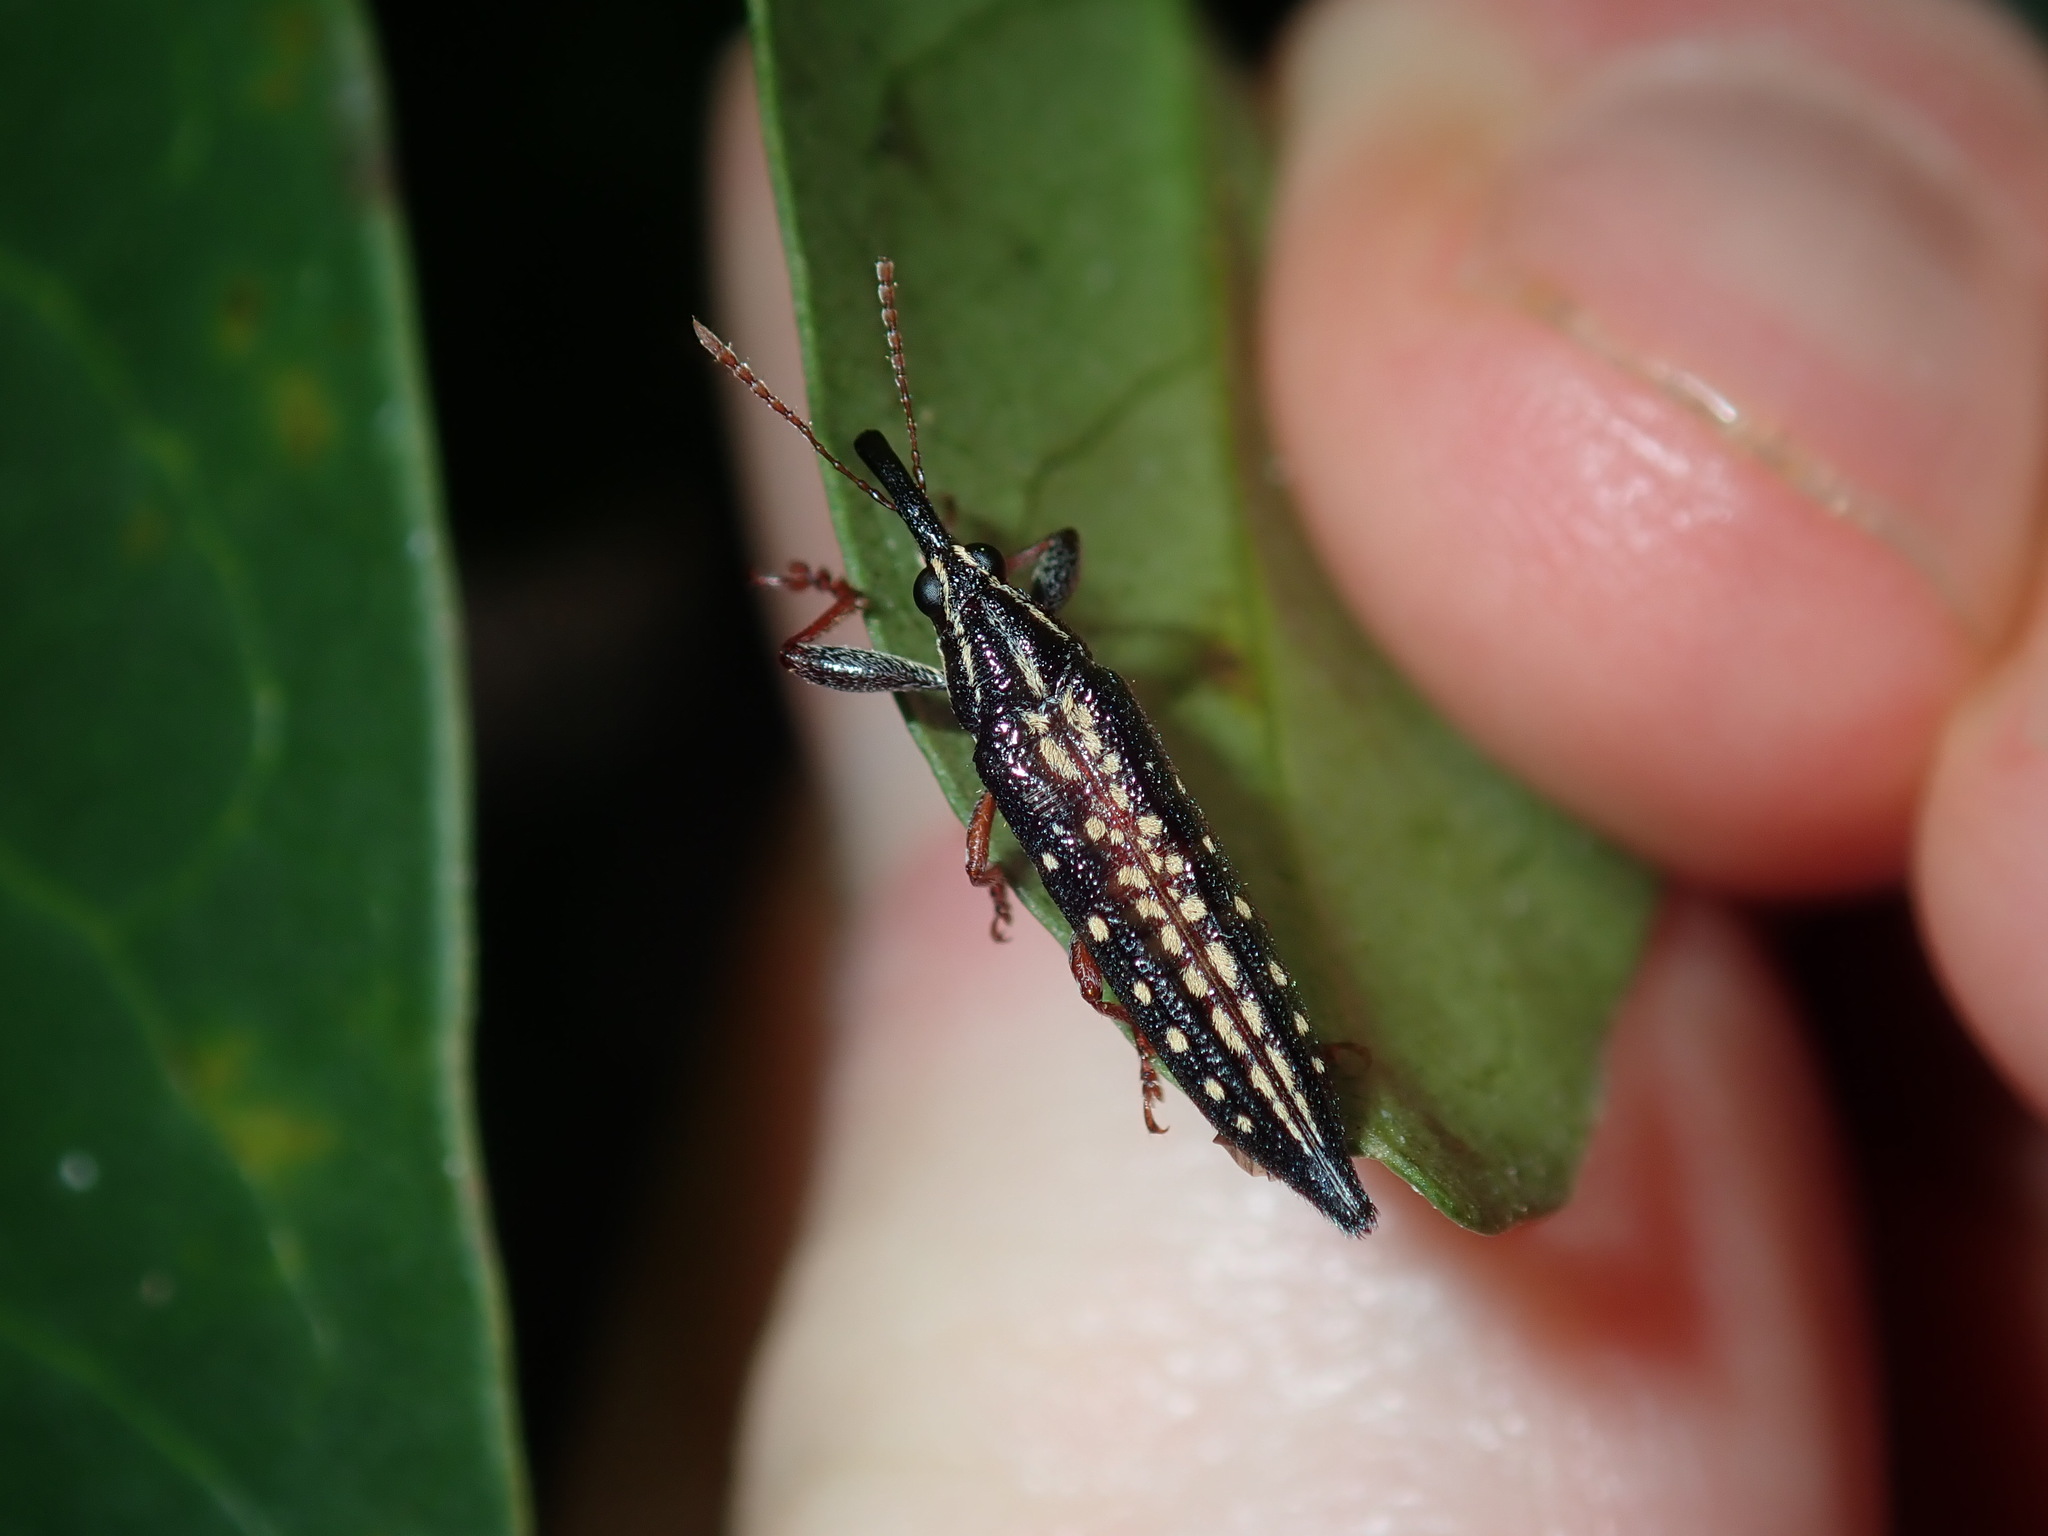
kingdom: Animalia
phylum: Arthropoda
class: Insecta
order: Coleoptera
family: Belidae
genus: Rhinotia
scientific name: Rhinotia lineata
